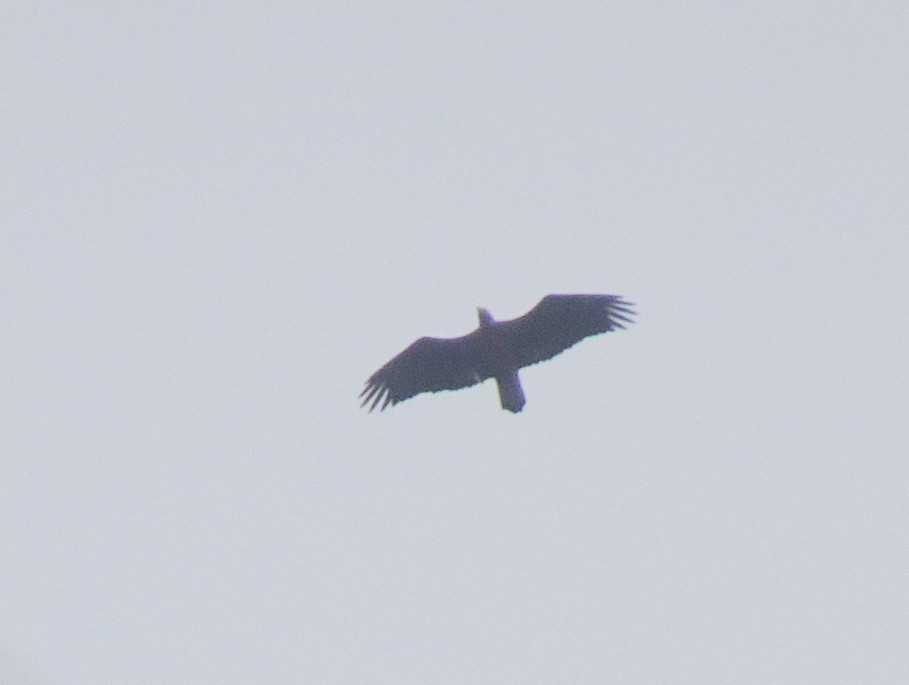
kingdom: Animalia
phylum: Chordata
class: Aves
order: Accipitriformes
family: Accipitridae
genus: Haliaeetus
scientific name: Haliaeetus leucocephalus
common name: Bald eagle
